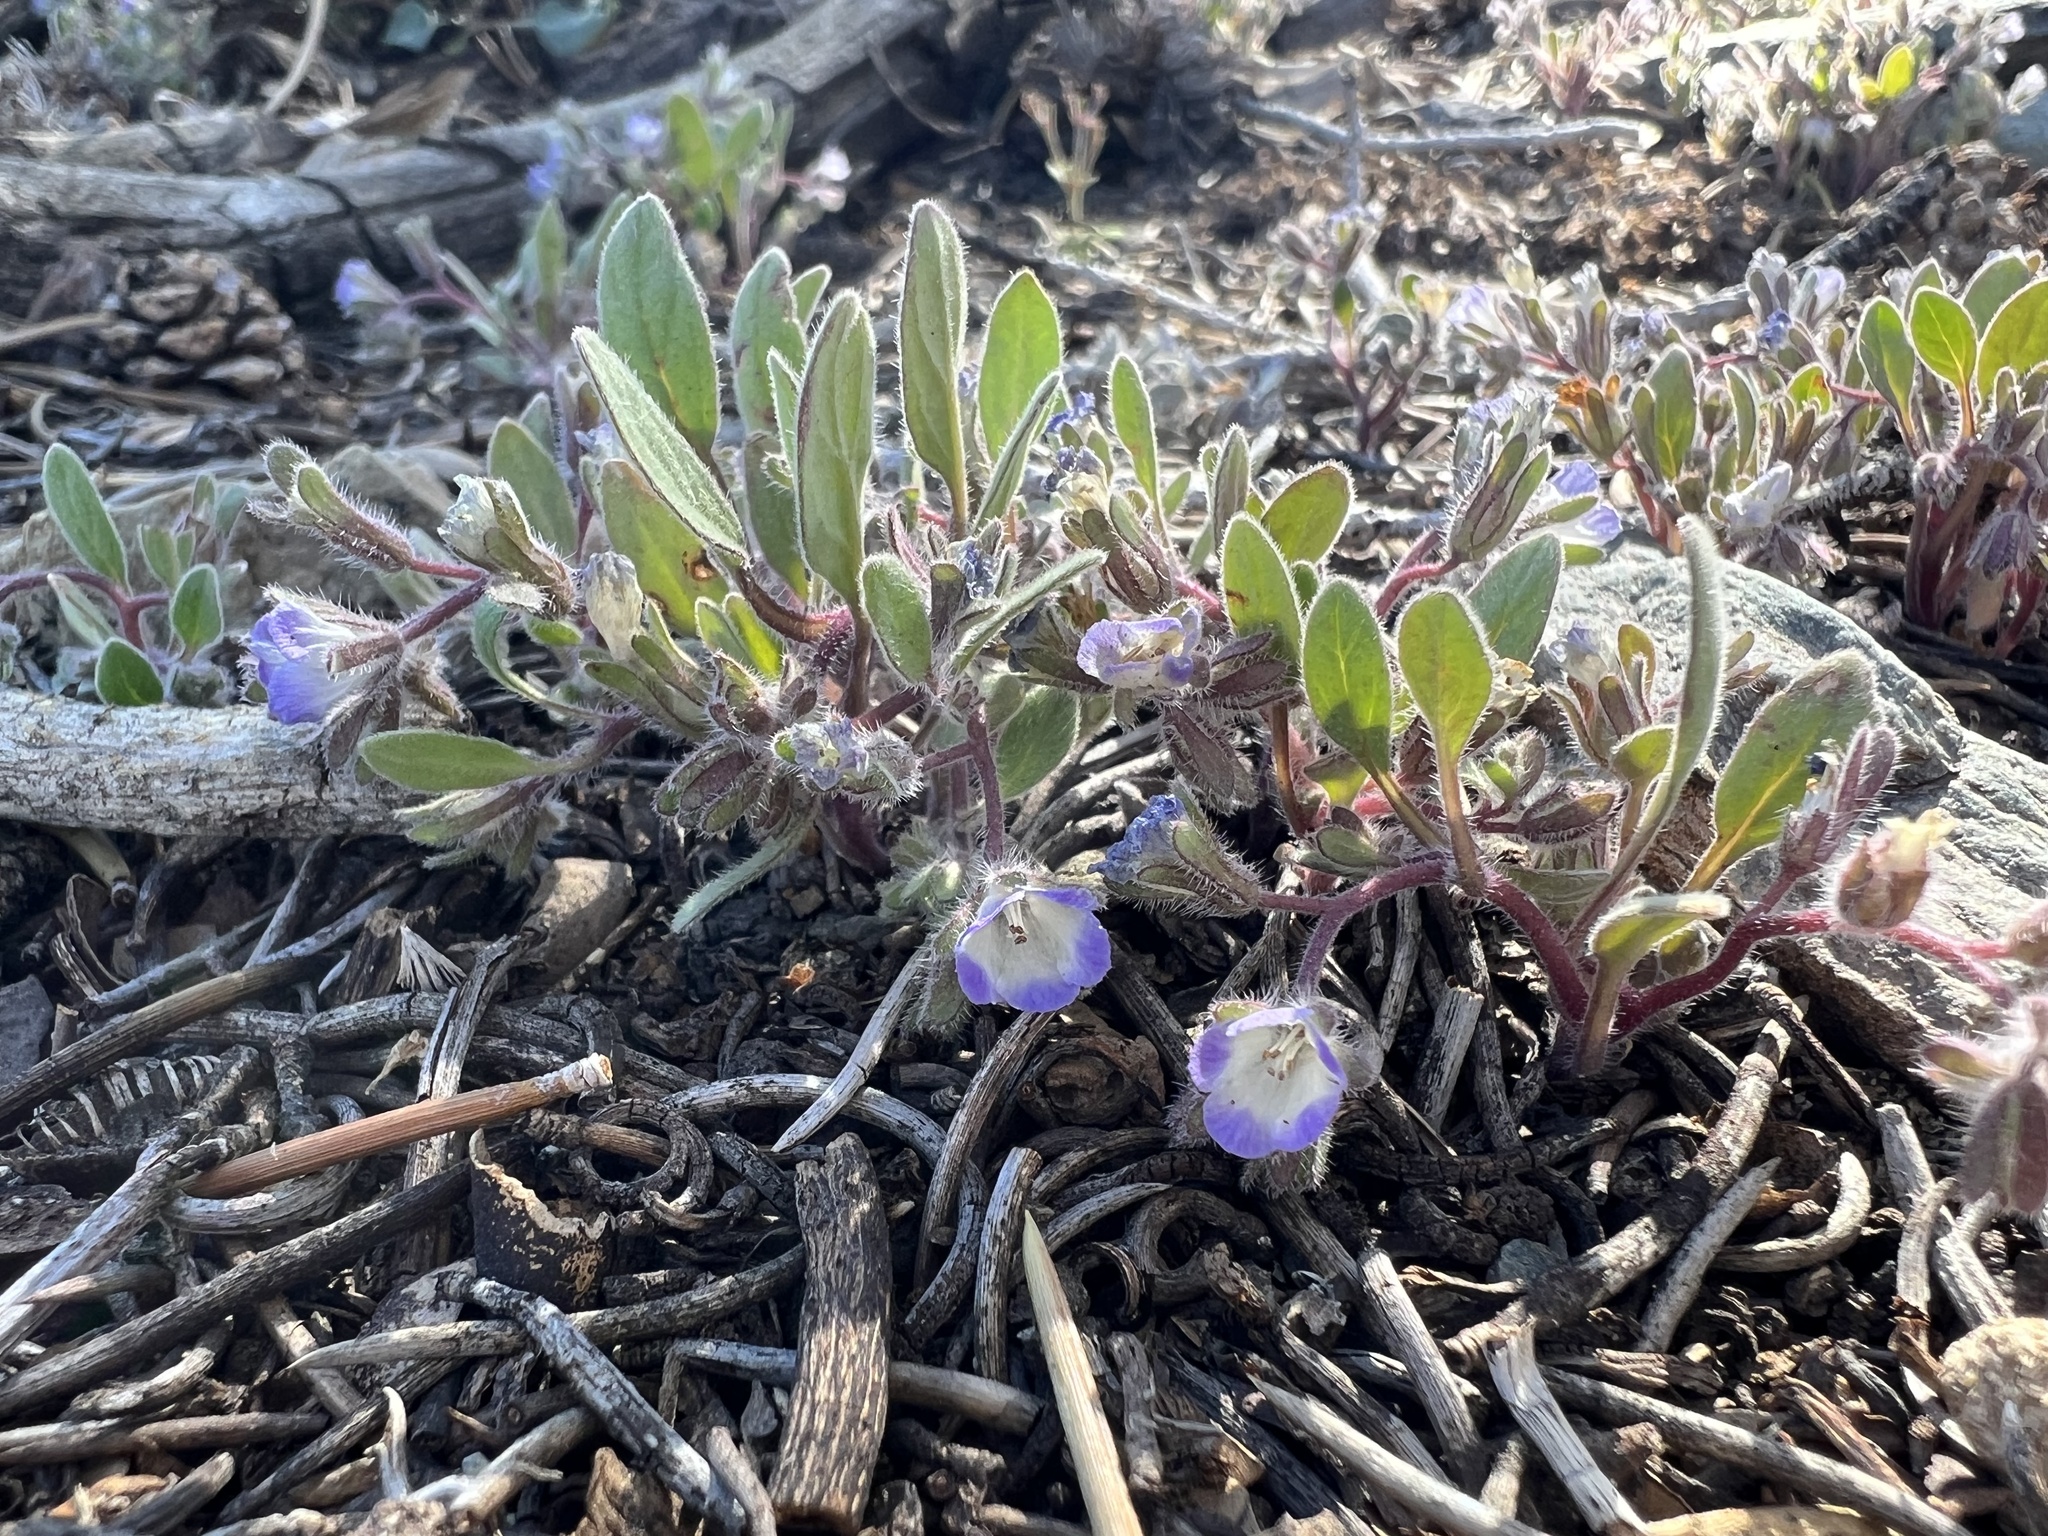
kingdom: Plantae
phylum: Tracheophyta
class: Magnoliopsida
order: Boraginales
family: Hydrophyllaceae
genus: Phacelia
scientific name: Phacelia curvipes
